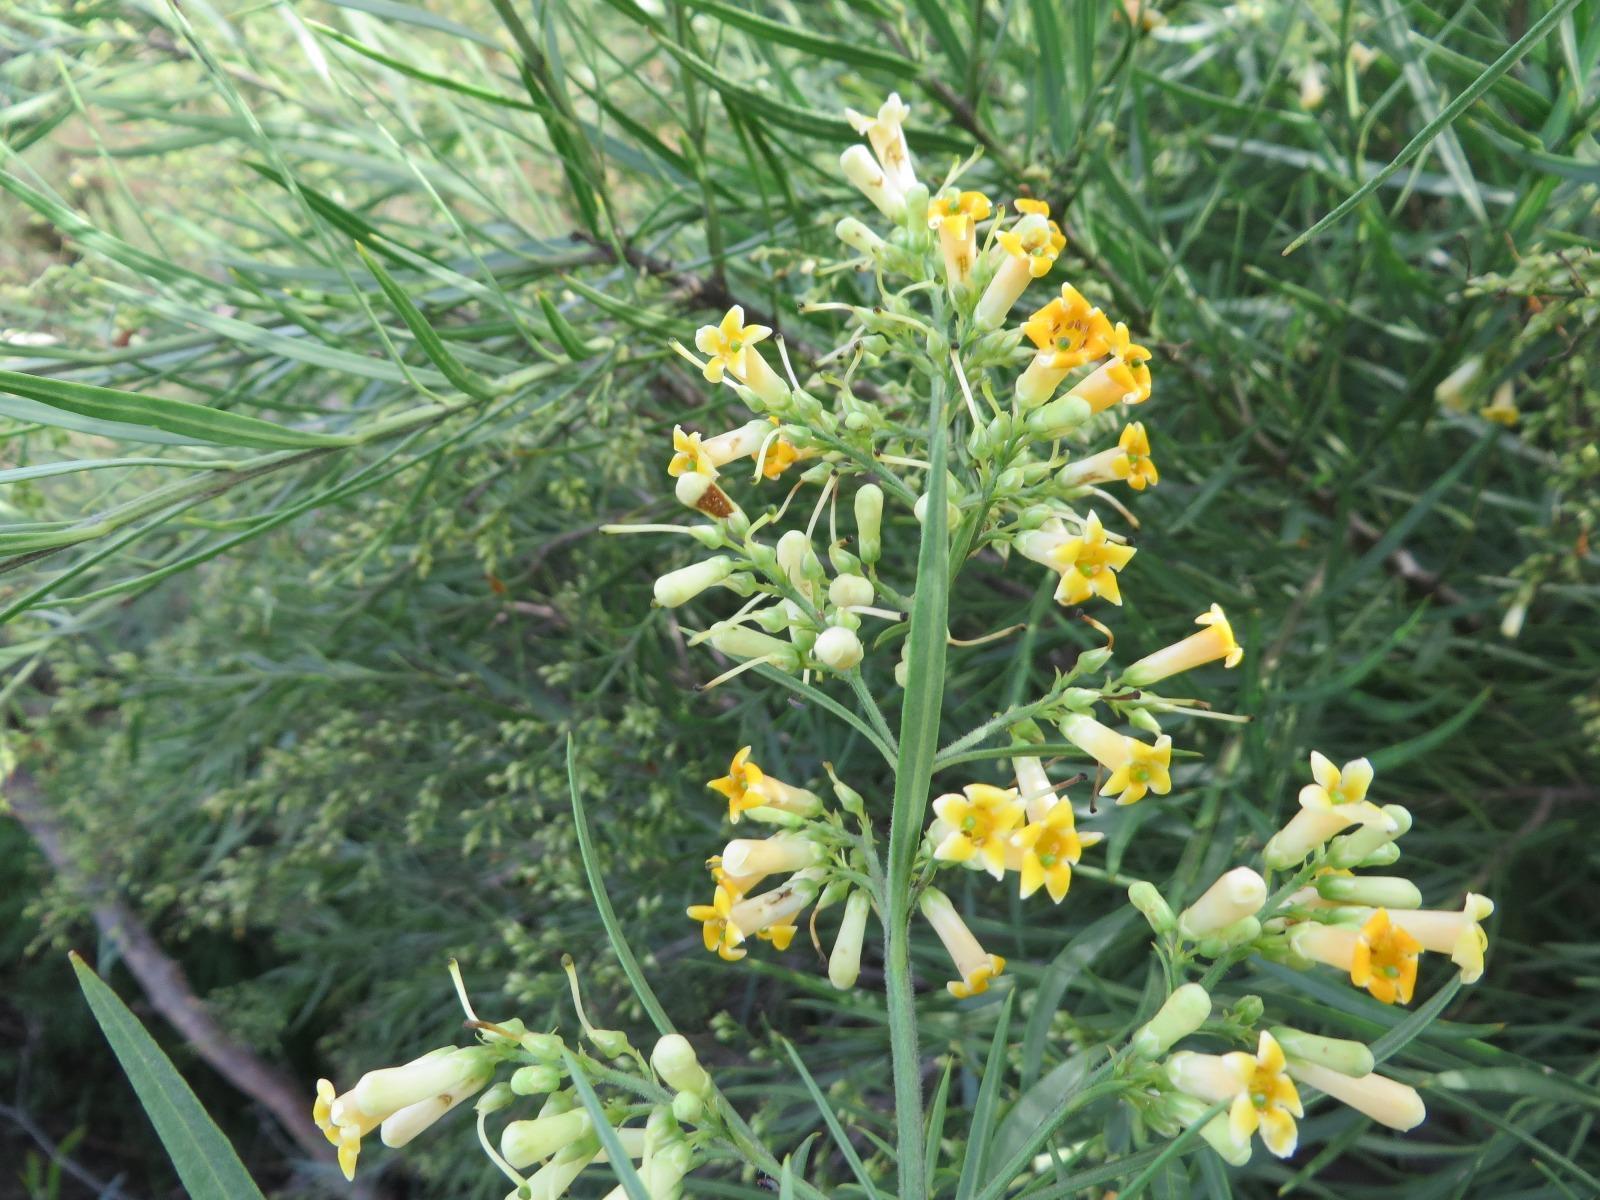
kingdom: Plantae
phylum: Tracheophyta
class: Magnoliopsida
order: Lamiales
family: Scrophulariaceae
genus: Freylinia
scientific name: Freylinia lanceolata
